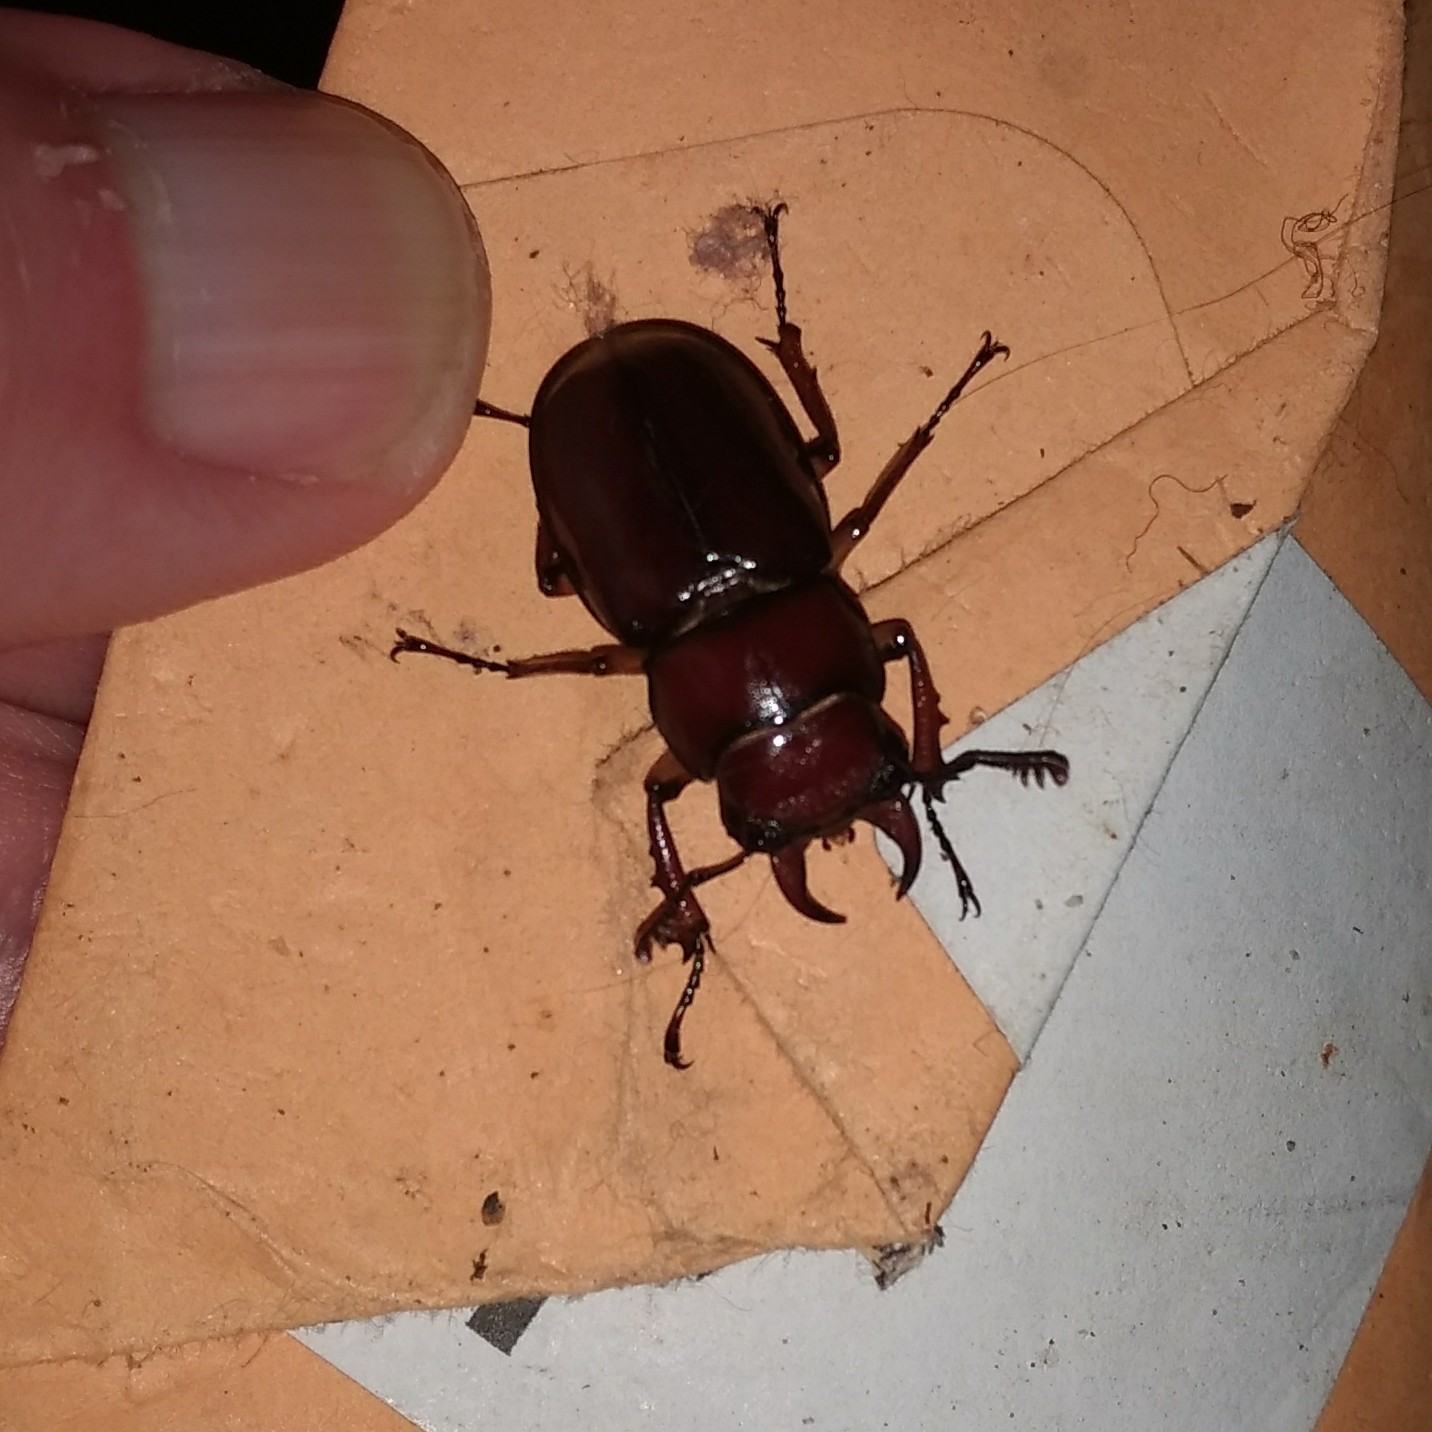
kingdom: Animalia
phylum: Arthropoda
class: Insecta
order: Coleoptera
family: Lucanidae
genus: Lucanus
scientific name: Lucanus capreolus
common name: Stag beetle
